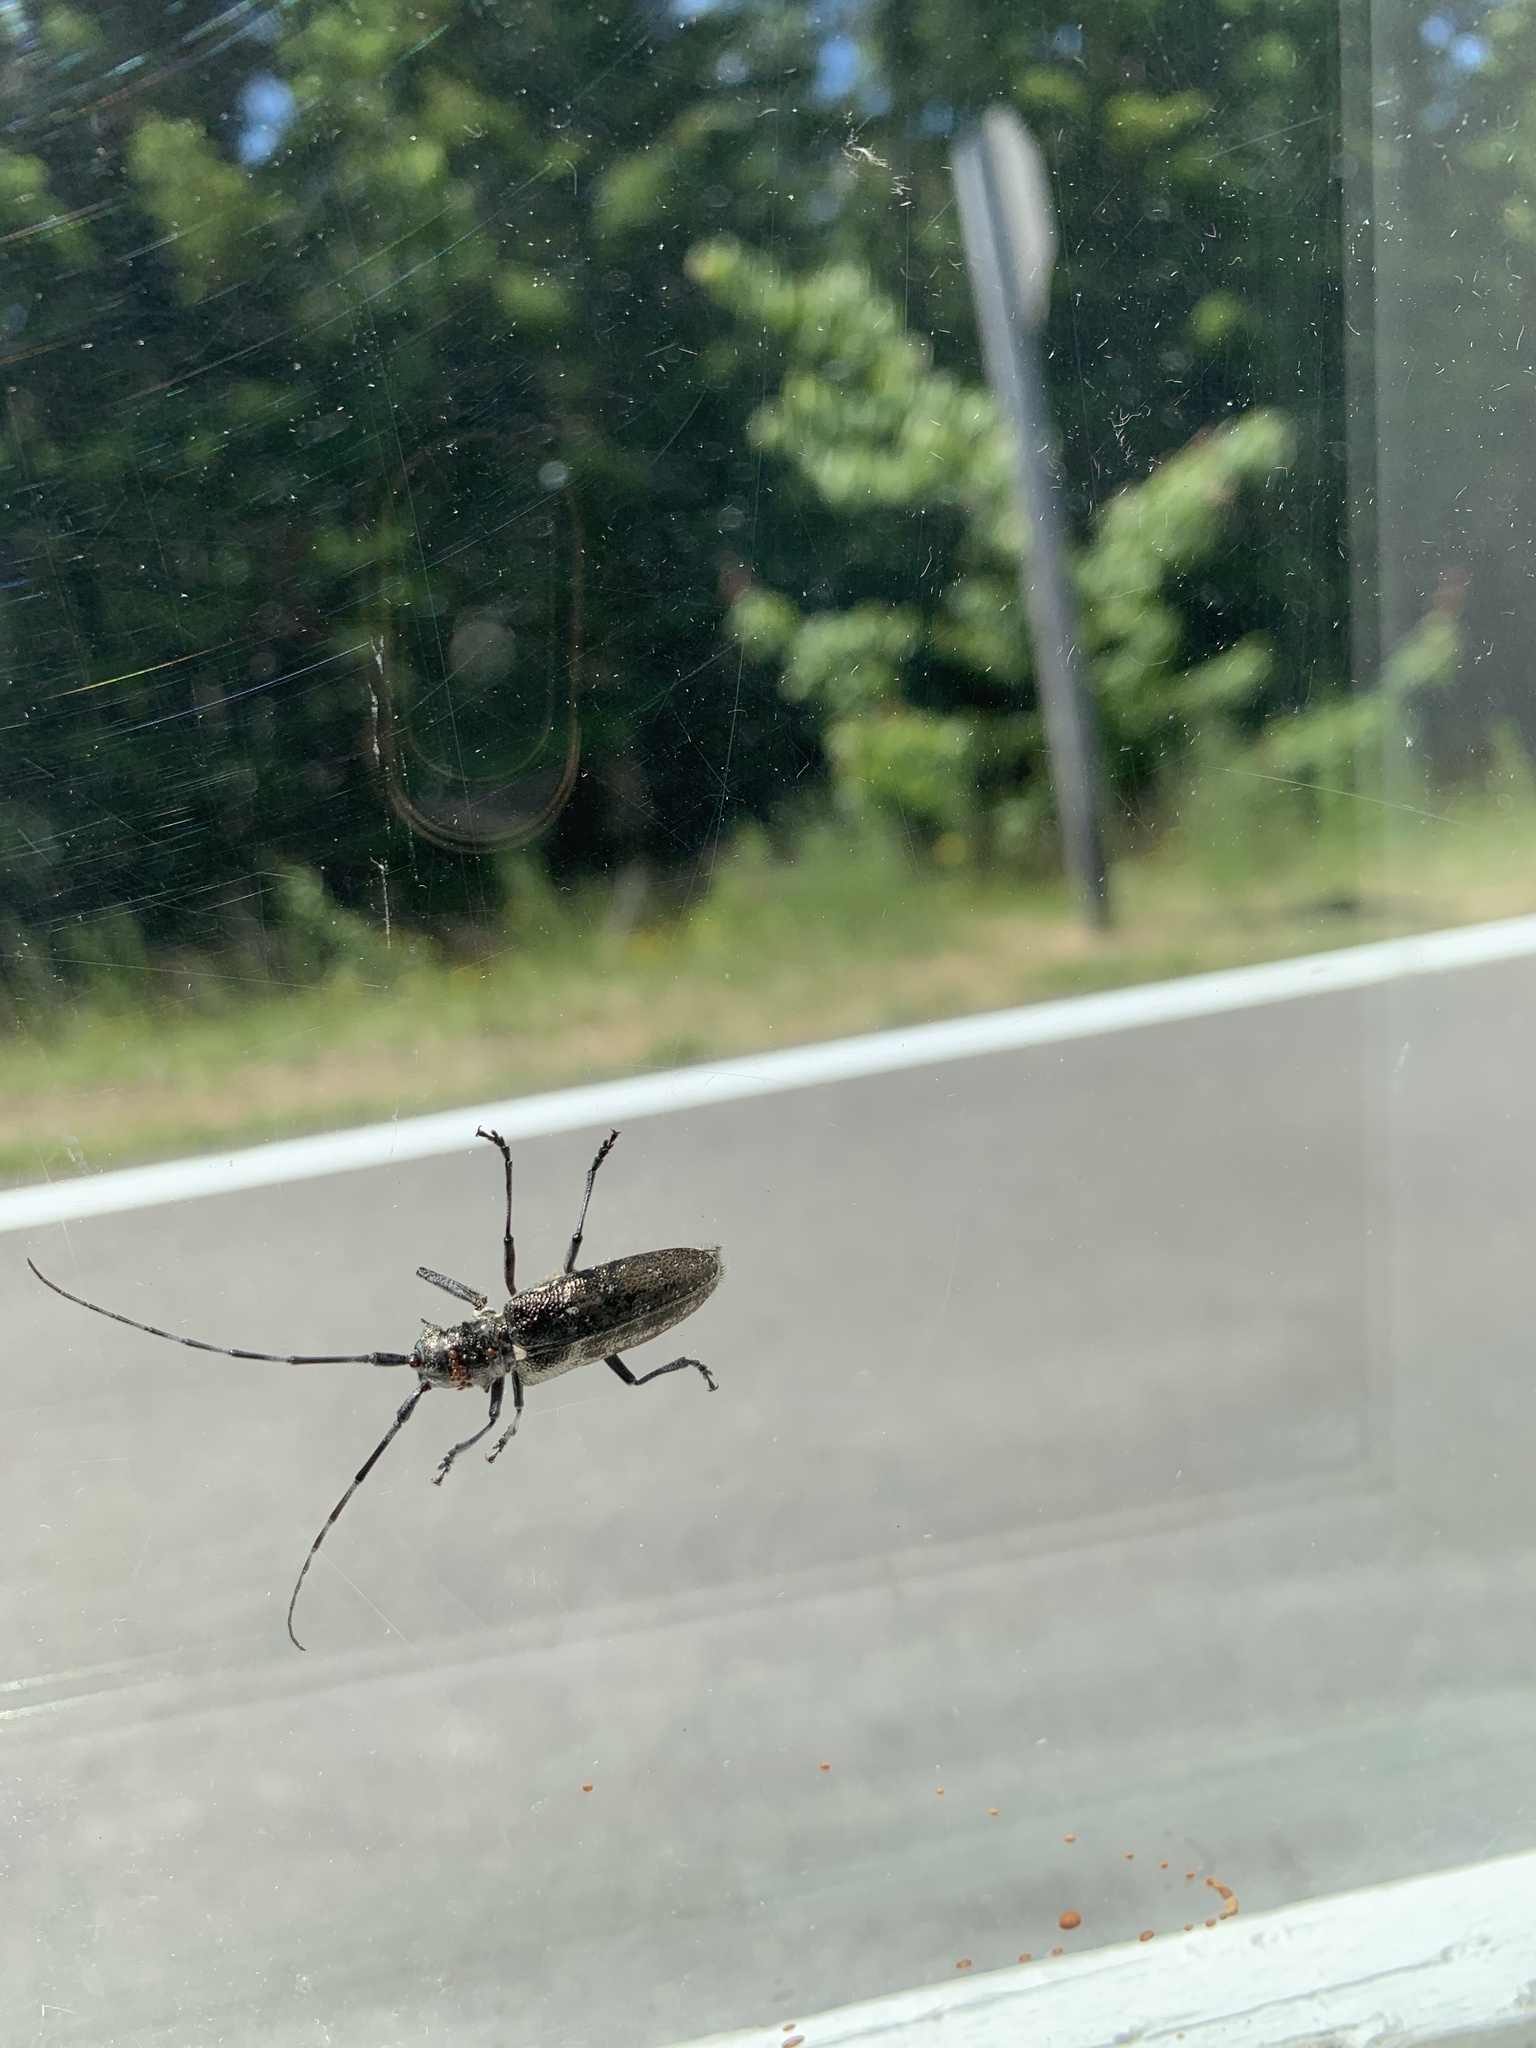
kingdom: Animalia
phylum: Arthropoda
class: Insecta
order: Coleoptera
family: Cerambycidae
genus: Monochamus
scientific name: Monochamus scutellatus
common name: White-spotted sawyer beetle
